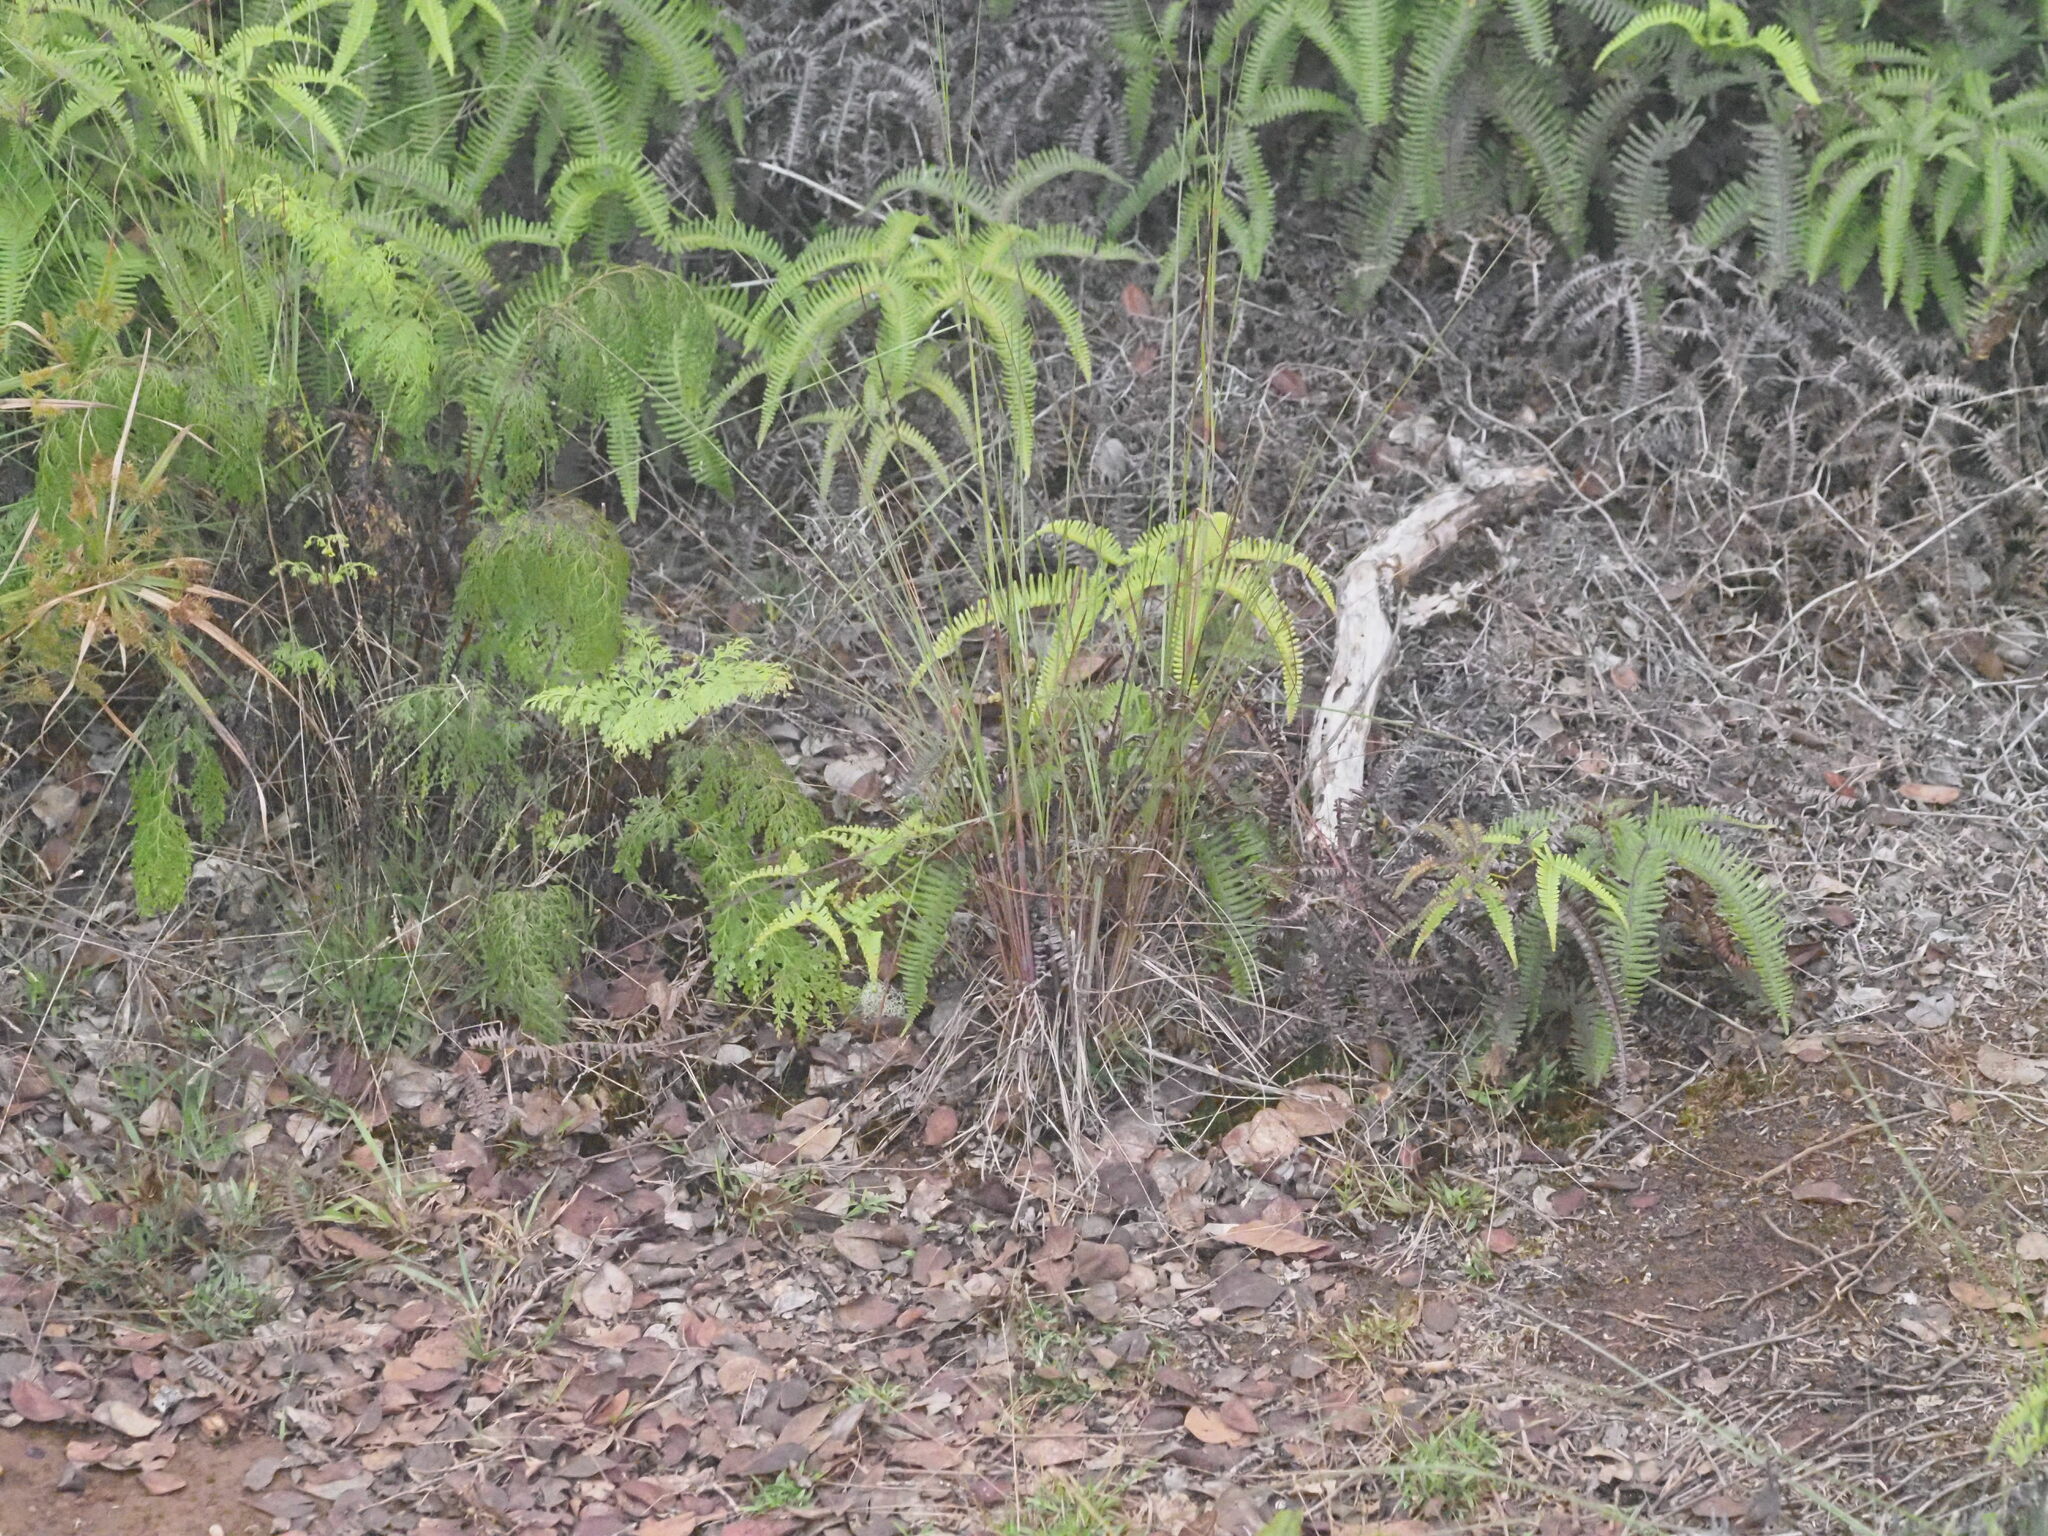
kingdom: Plantae
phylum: Tracheophyta
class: Liliopsida
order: Poales
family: Poaceae
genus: Andropogon
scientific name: Andropogon bicornis
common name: West indian foxtail grass
